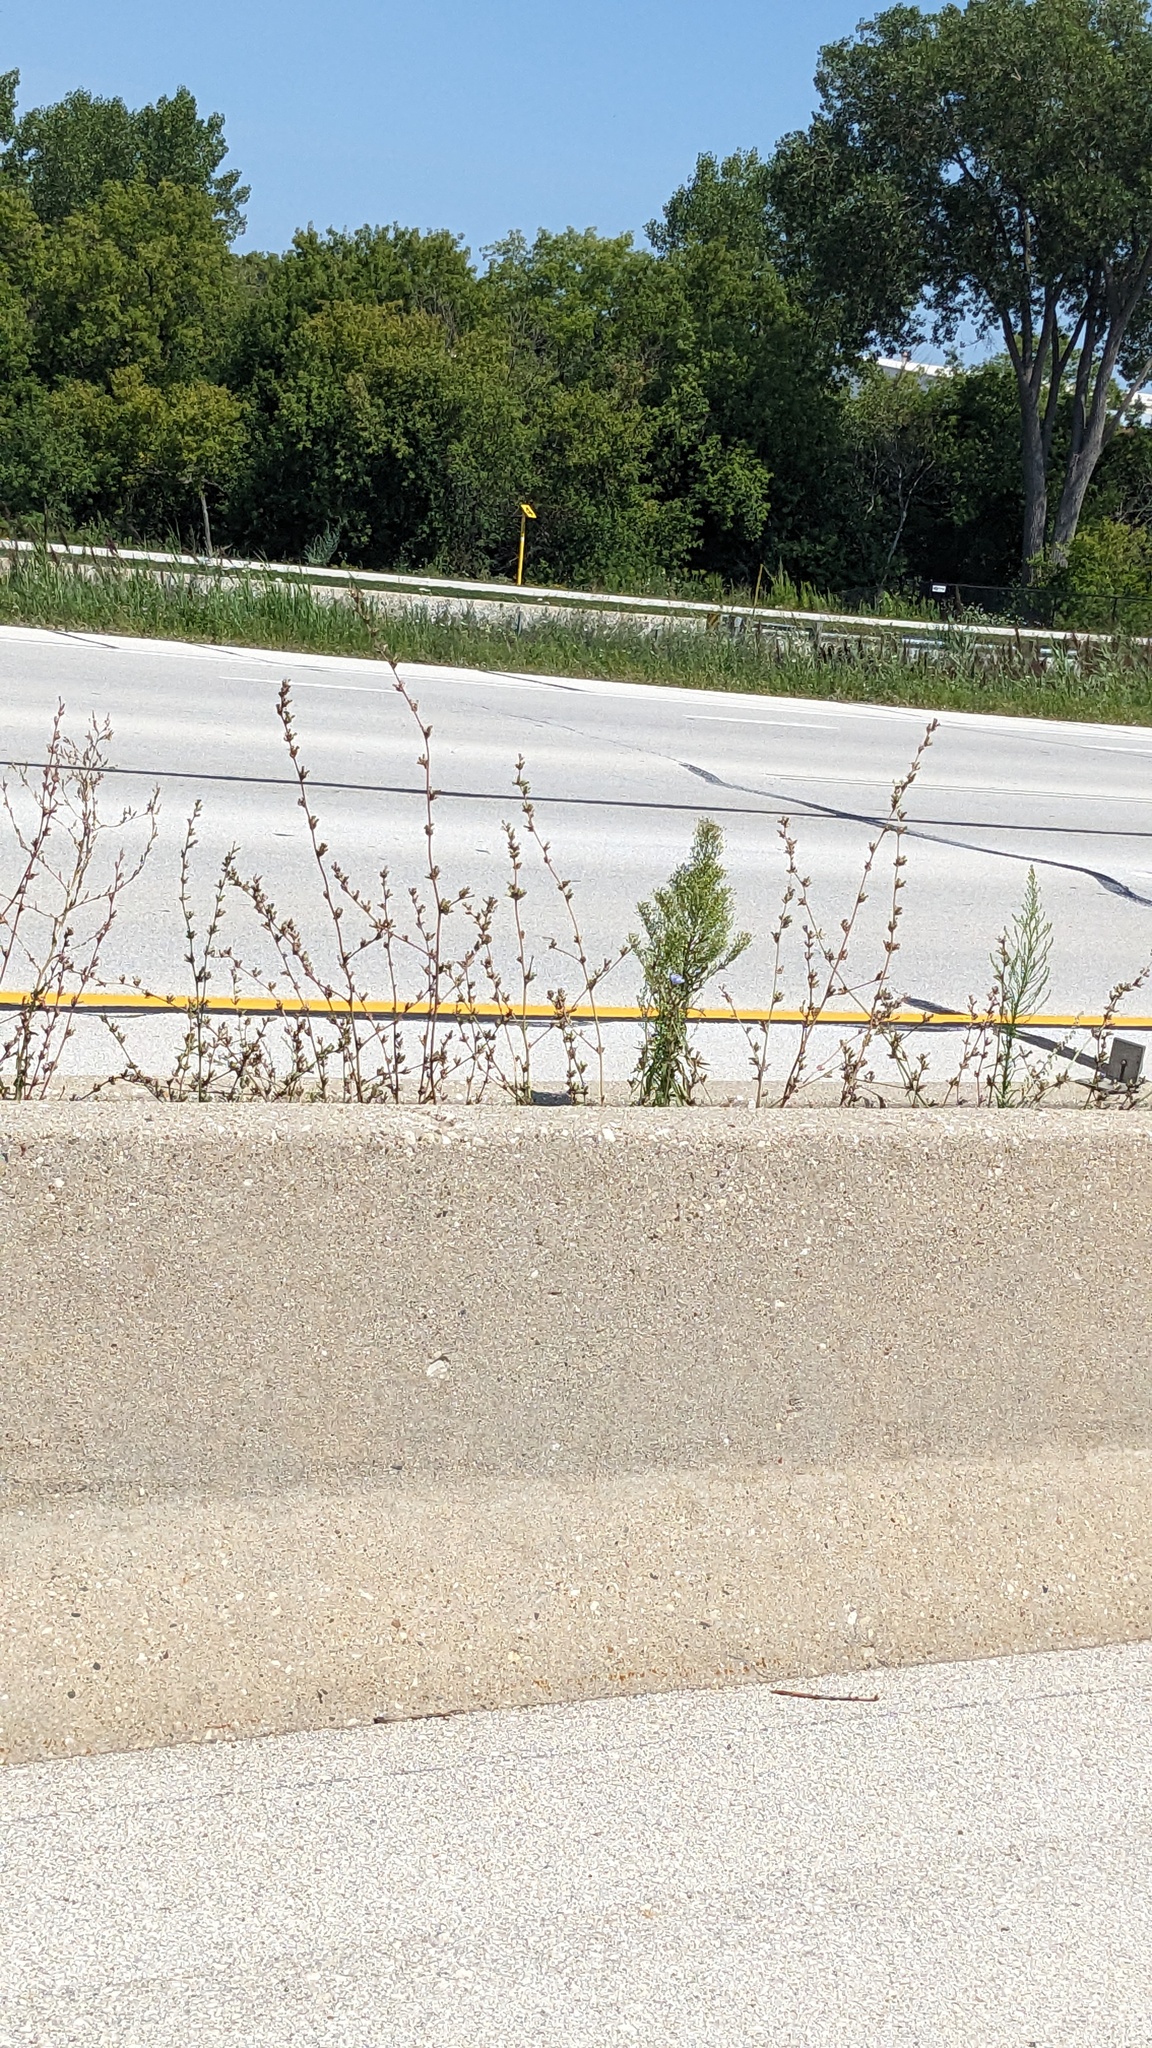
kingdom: Plantae
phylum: Tracheophyta
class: Magnoliopsida
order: Asterales
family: Asteraceae
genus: Erigeron
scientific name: Erigeron canadensis
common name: Canadian fleabane
